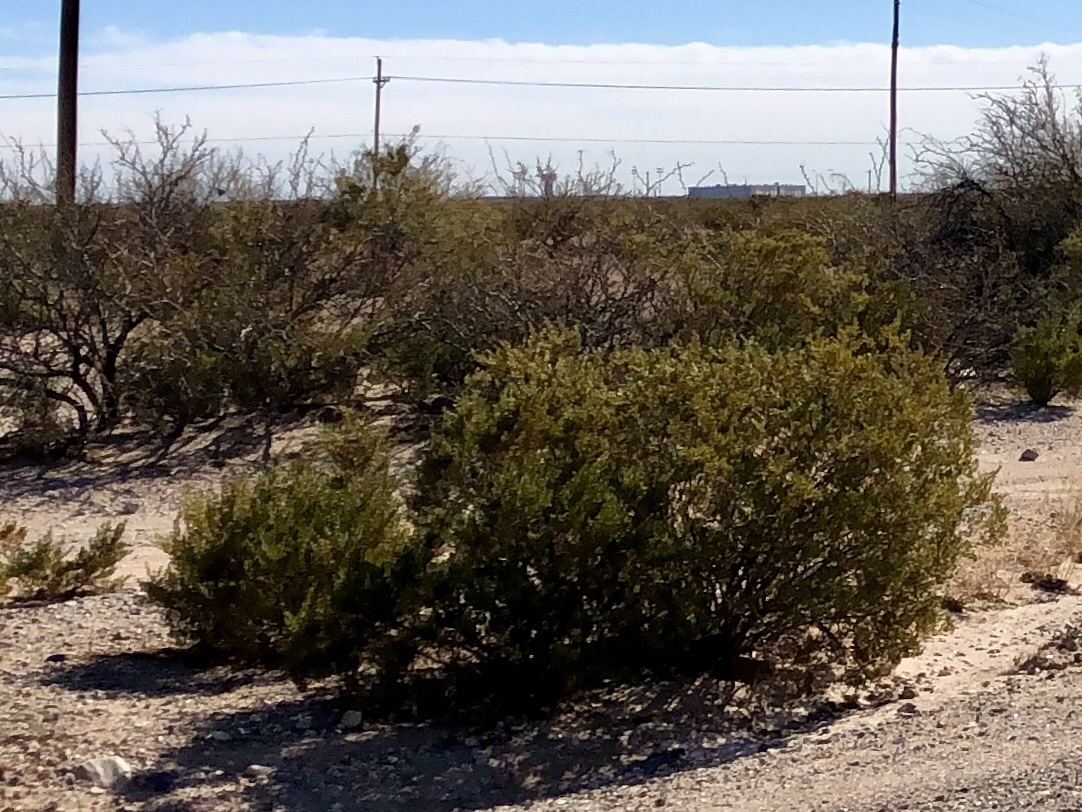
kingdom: Plantae
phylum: Tracheophyta
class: Magnoliopsida
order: Zygophyllales
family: Zygophyllaceae
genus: Larrea
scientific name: Larrea tridentata
